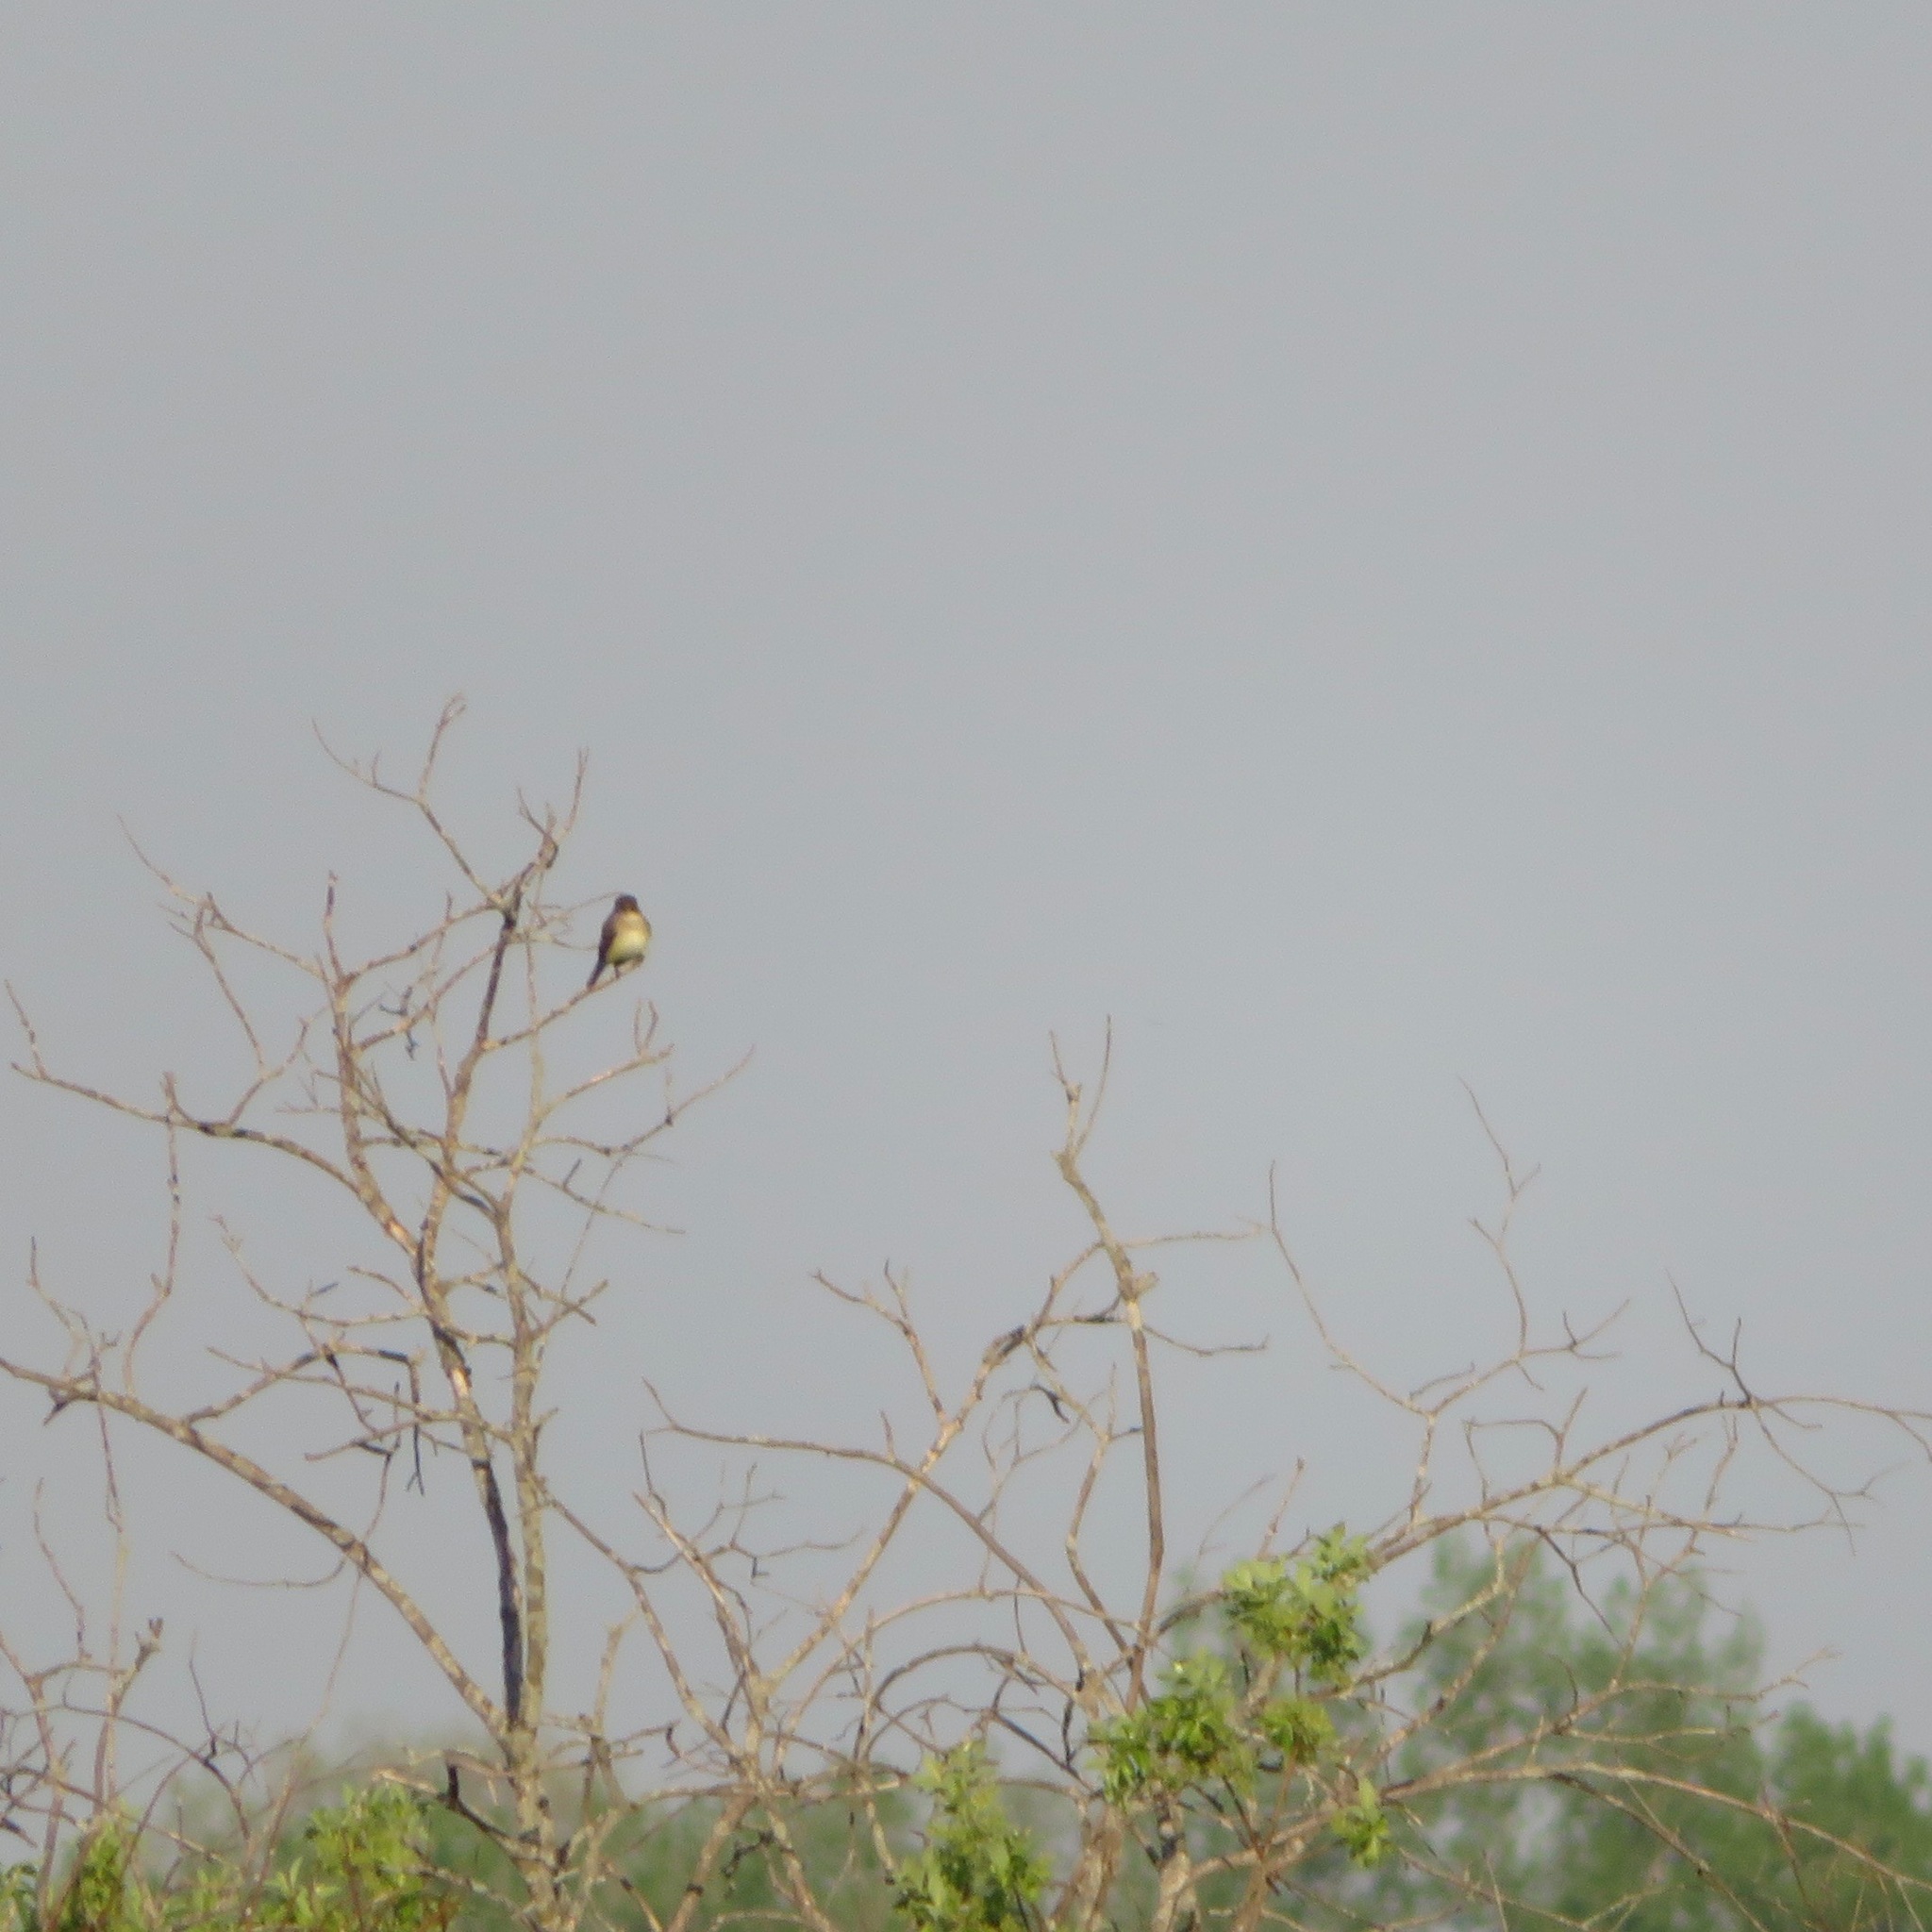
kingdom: Animalia
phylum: Chordata
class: Aves
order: Passeriformes
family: Tyrannidae
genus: Sayornis
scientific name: Sayornis phoebe
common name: Eastern phoebe
